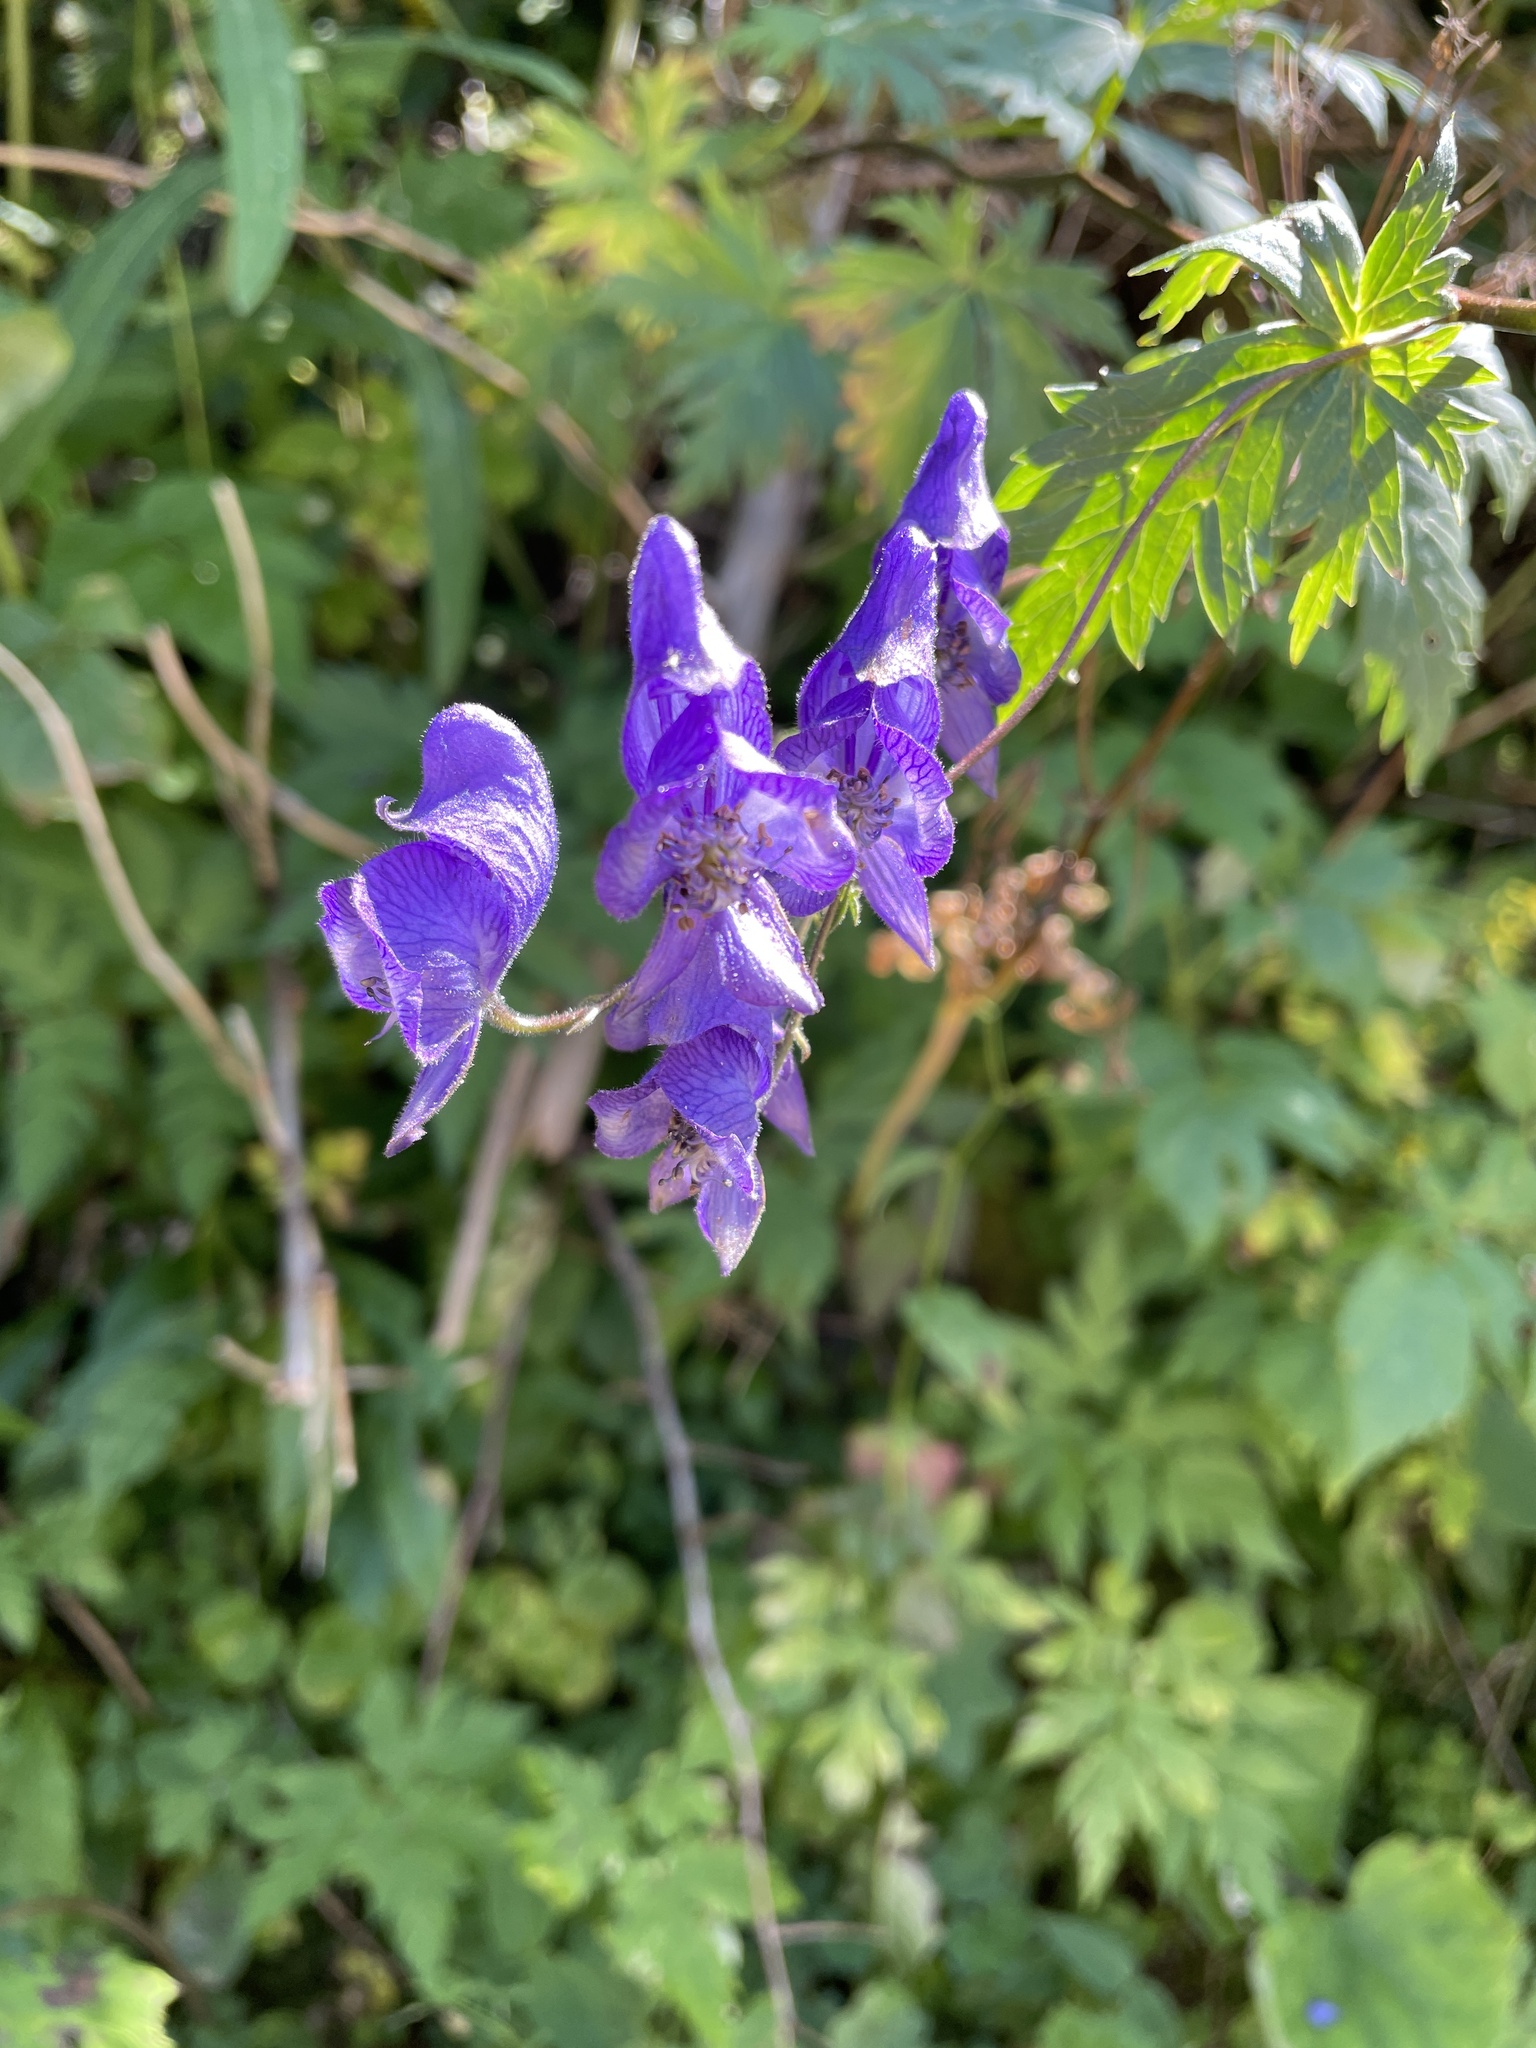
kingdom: Plantae
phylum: Tracheophyta
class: Magnoliopsida
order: Ranunculales
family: Ranunculaceae
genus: Aconitum
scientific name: Aconitum degenii
